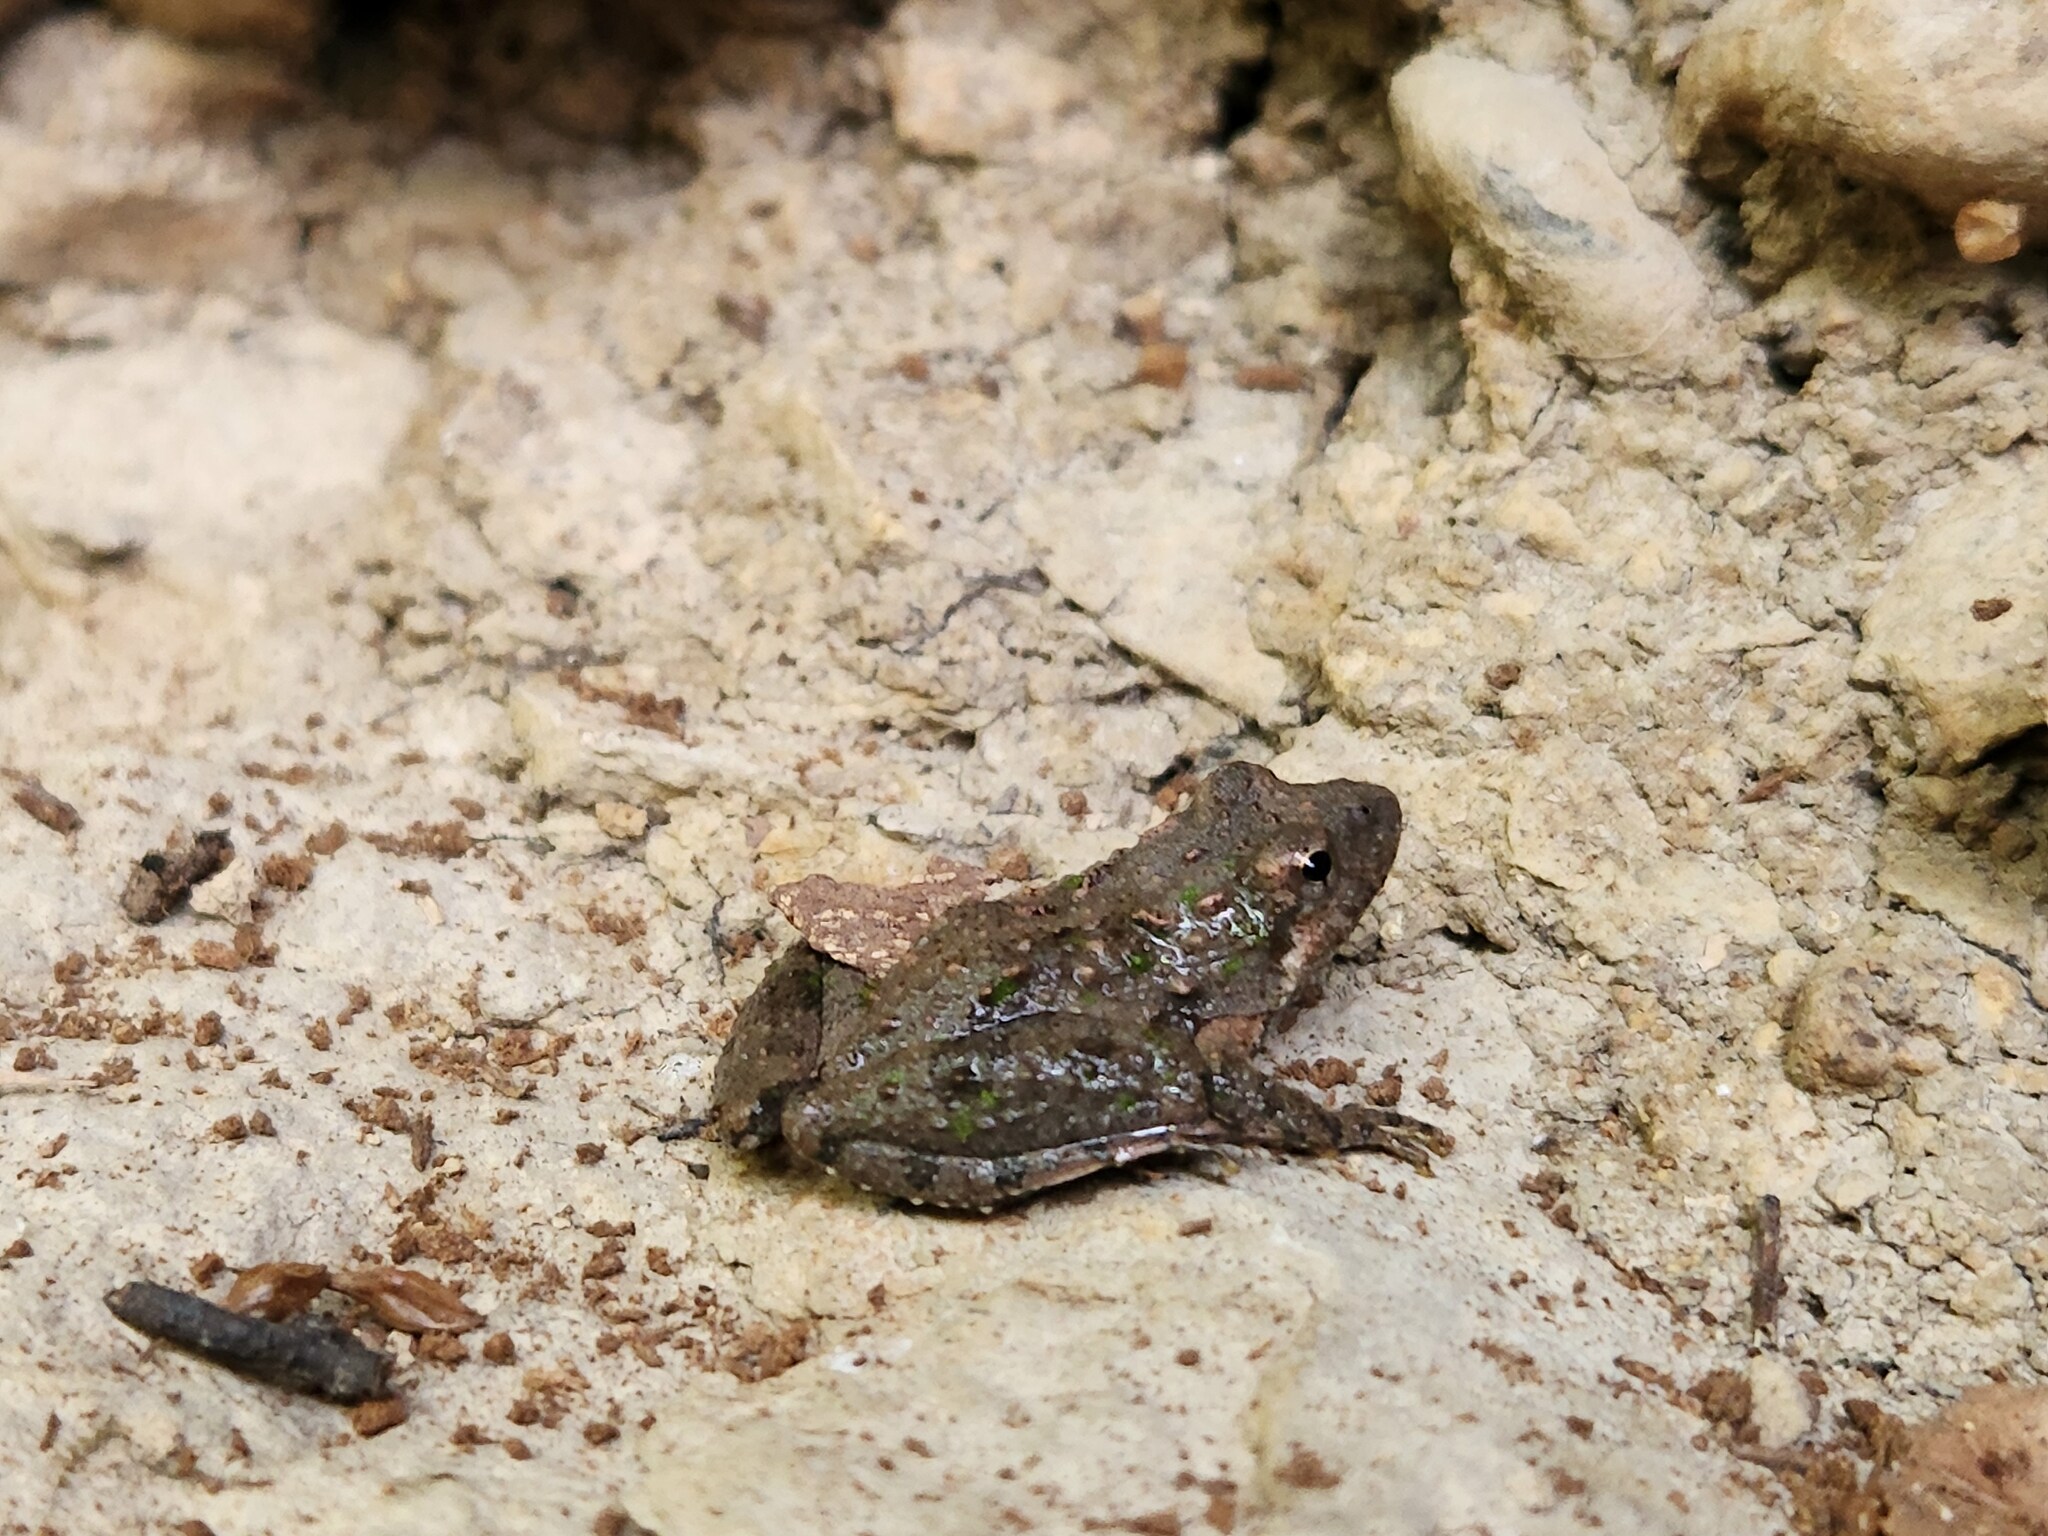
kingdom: Animalia
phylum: Chordata
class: Amphibia
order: Anura
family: Hylidae
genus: Acris
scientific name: Acris crepitans
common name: Northern cricket frog
